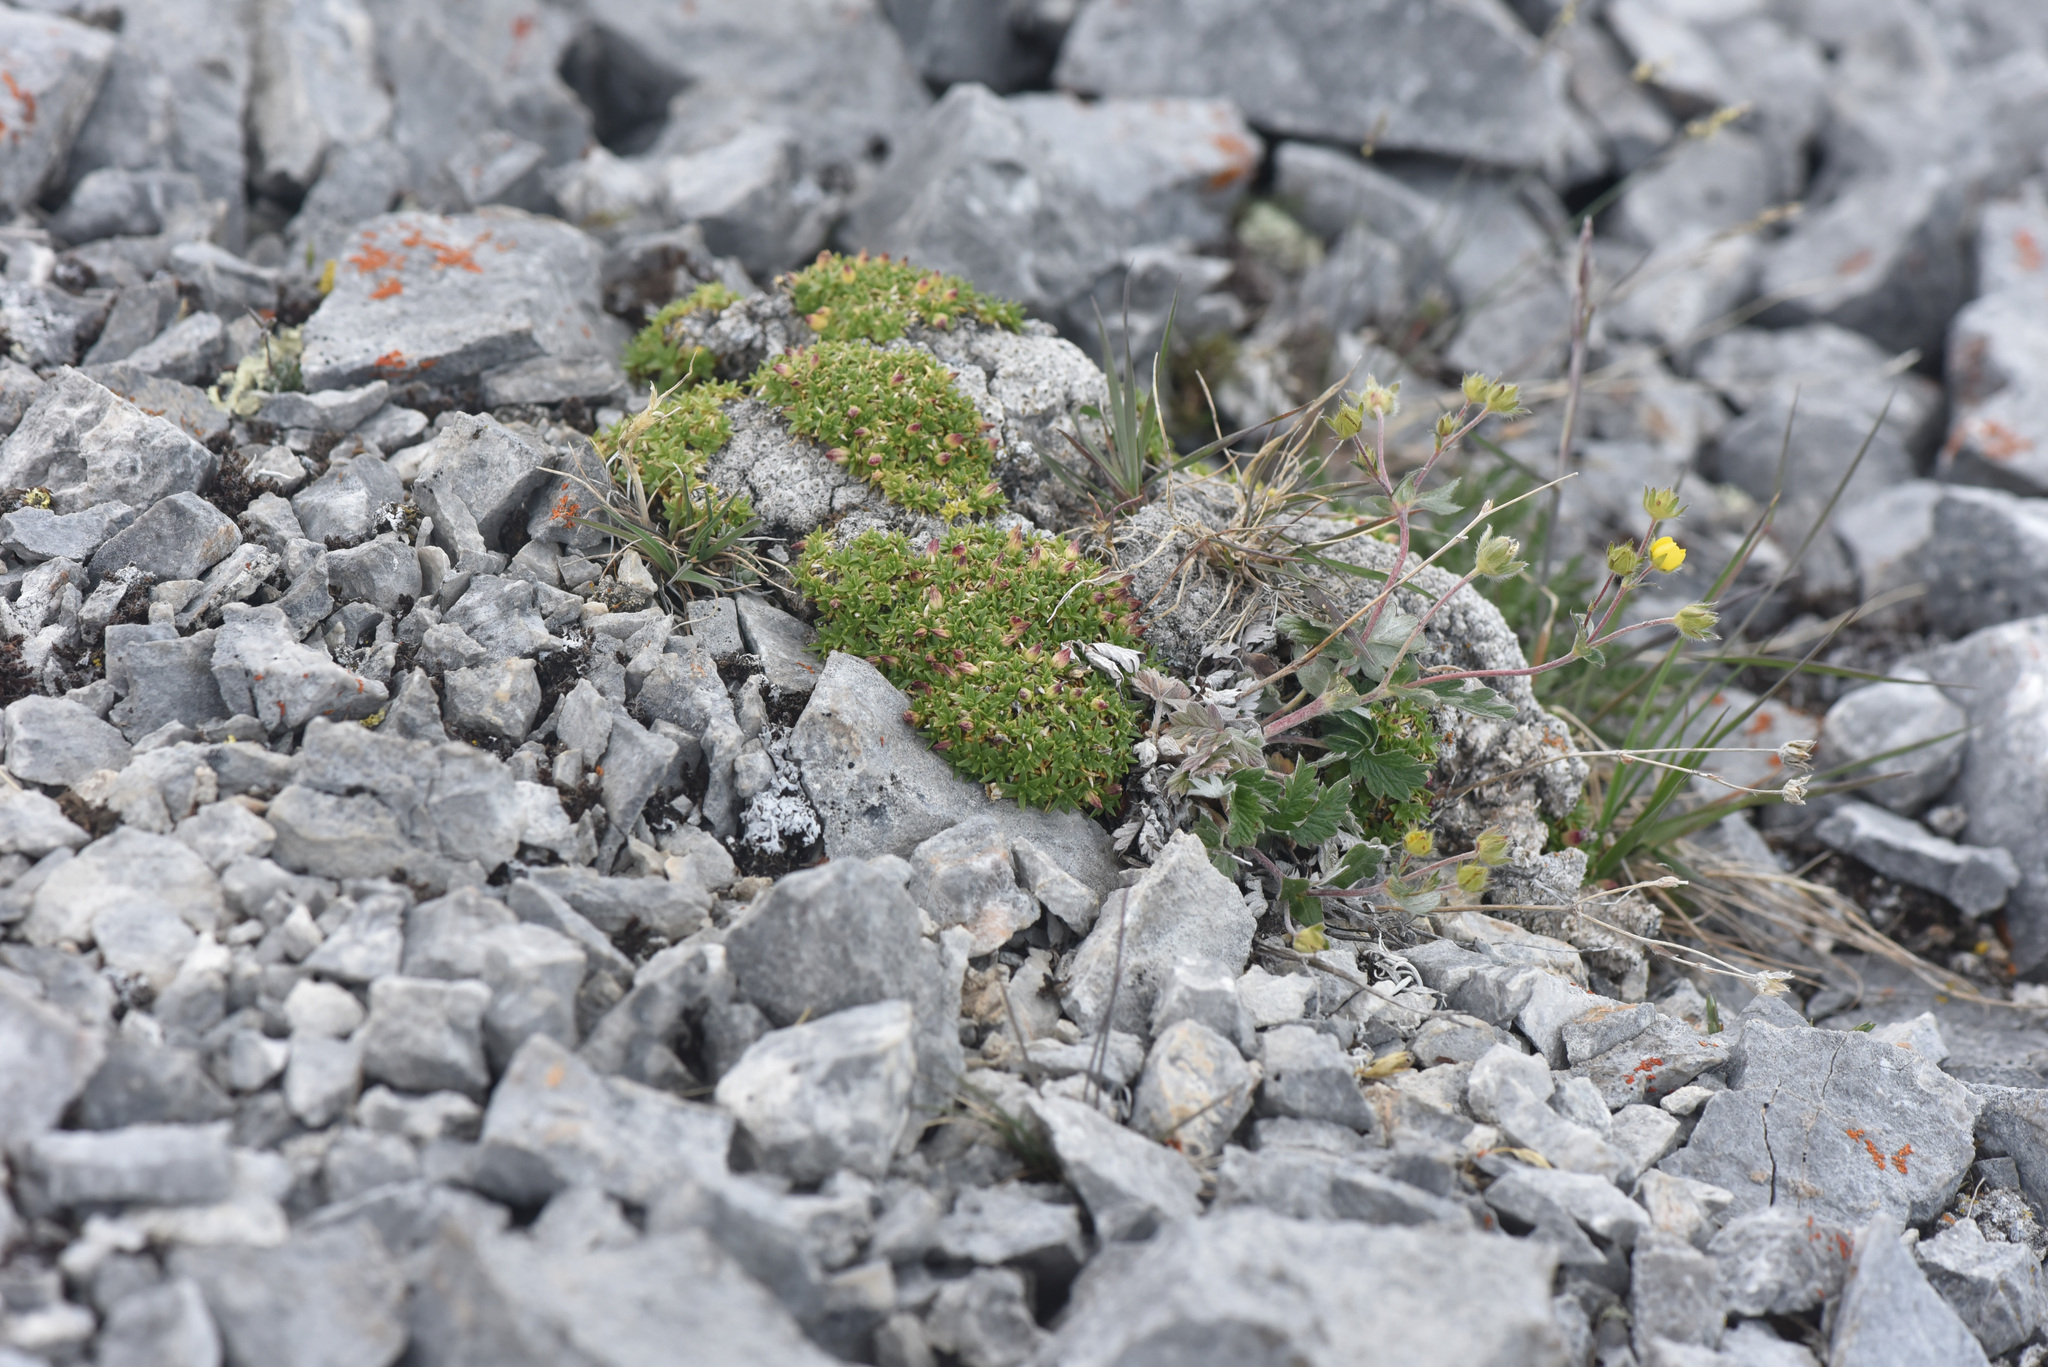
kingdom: Plantae
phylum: Tracheophyta
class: Magnoliopsida
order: Caryophyllales
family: Caryophyllaceae
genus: Silene
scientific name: Silene acaulis
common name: Moss campion
